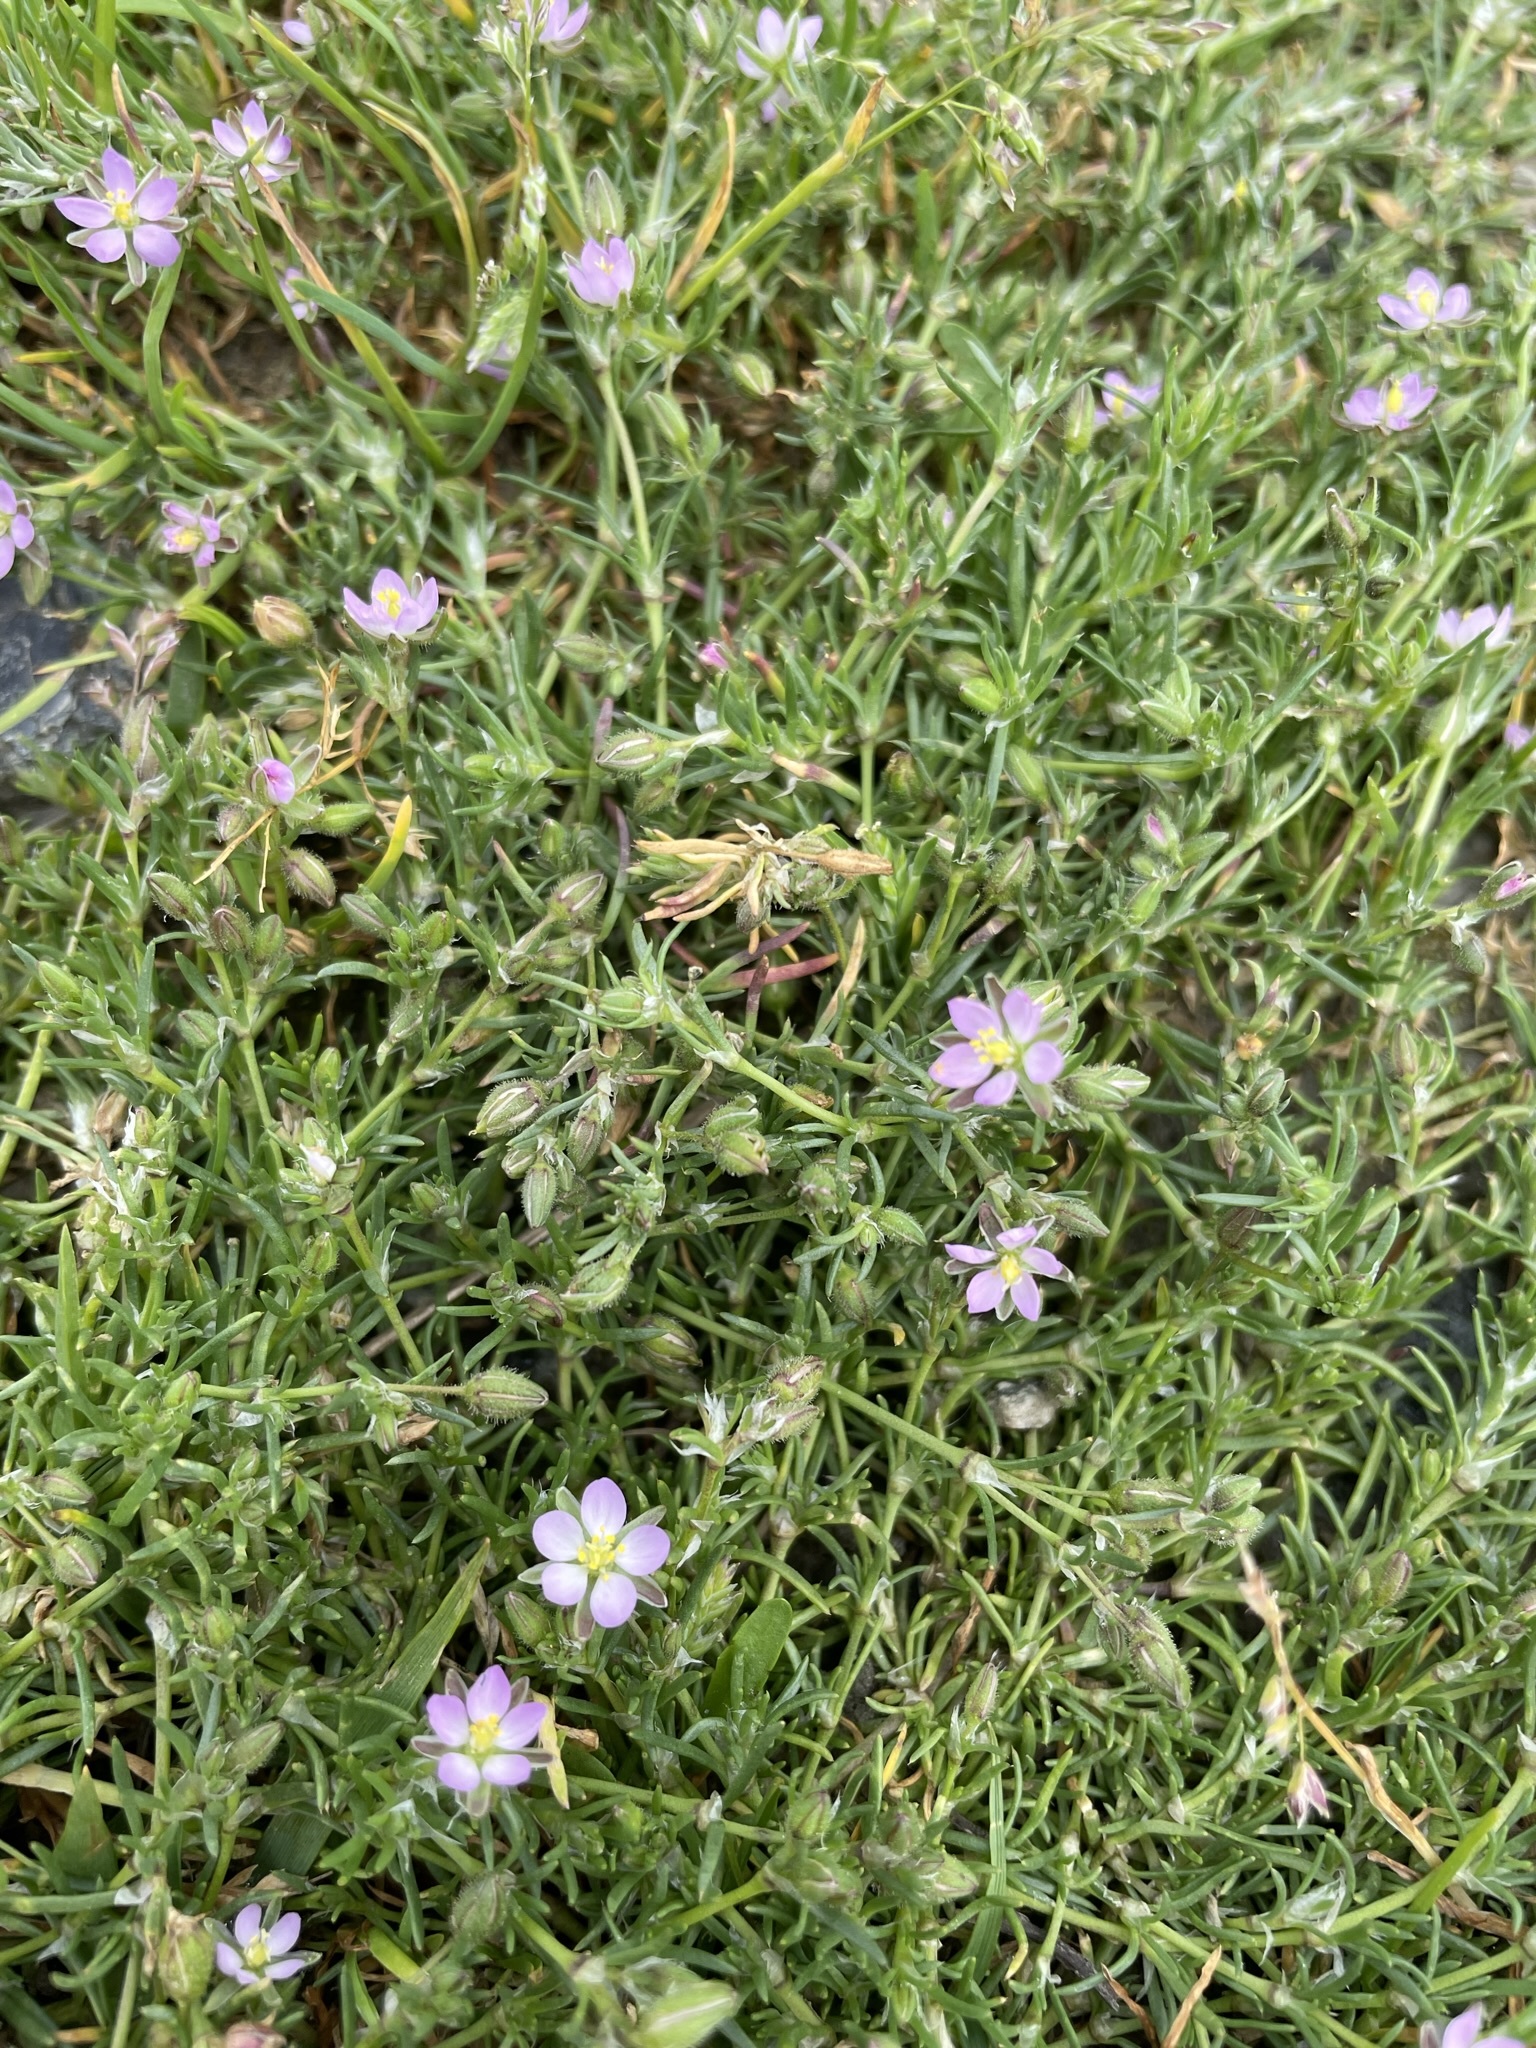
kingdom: Plantae
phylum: Tracheophyta
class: Magnoliopsida
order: Caryophyllales
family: Caryophyllaceae
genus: Spergularia
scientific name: Spergularia rubra
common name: Red sand-spurrey
